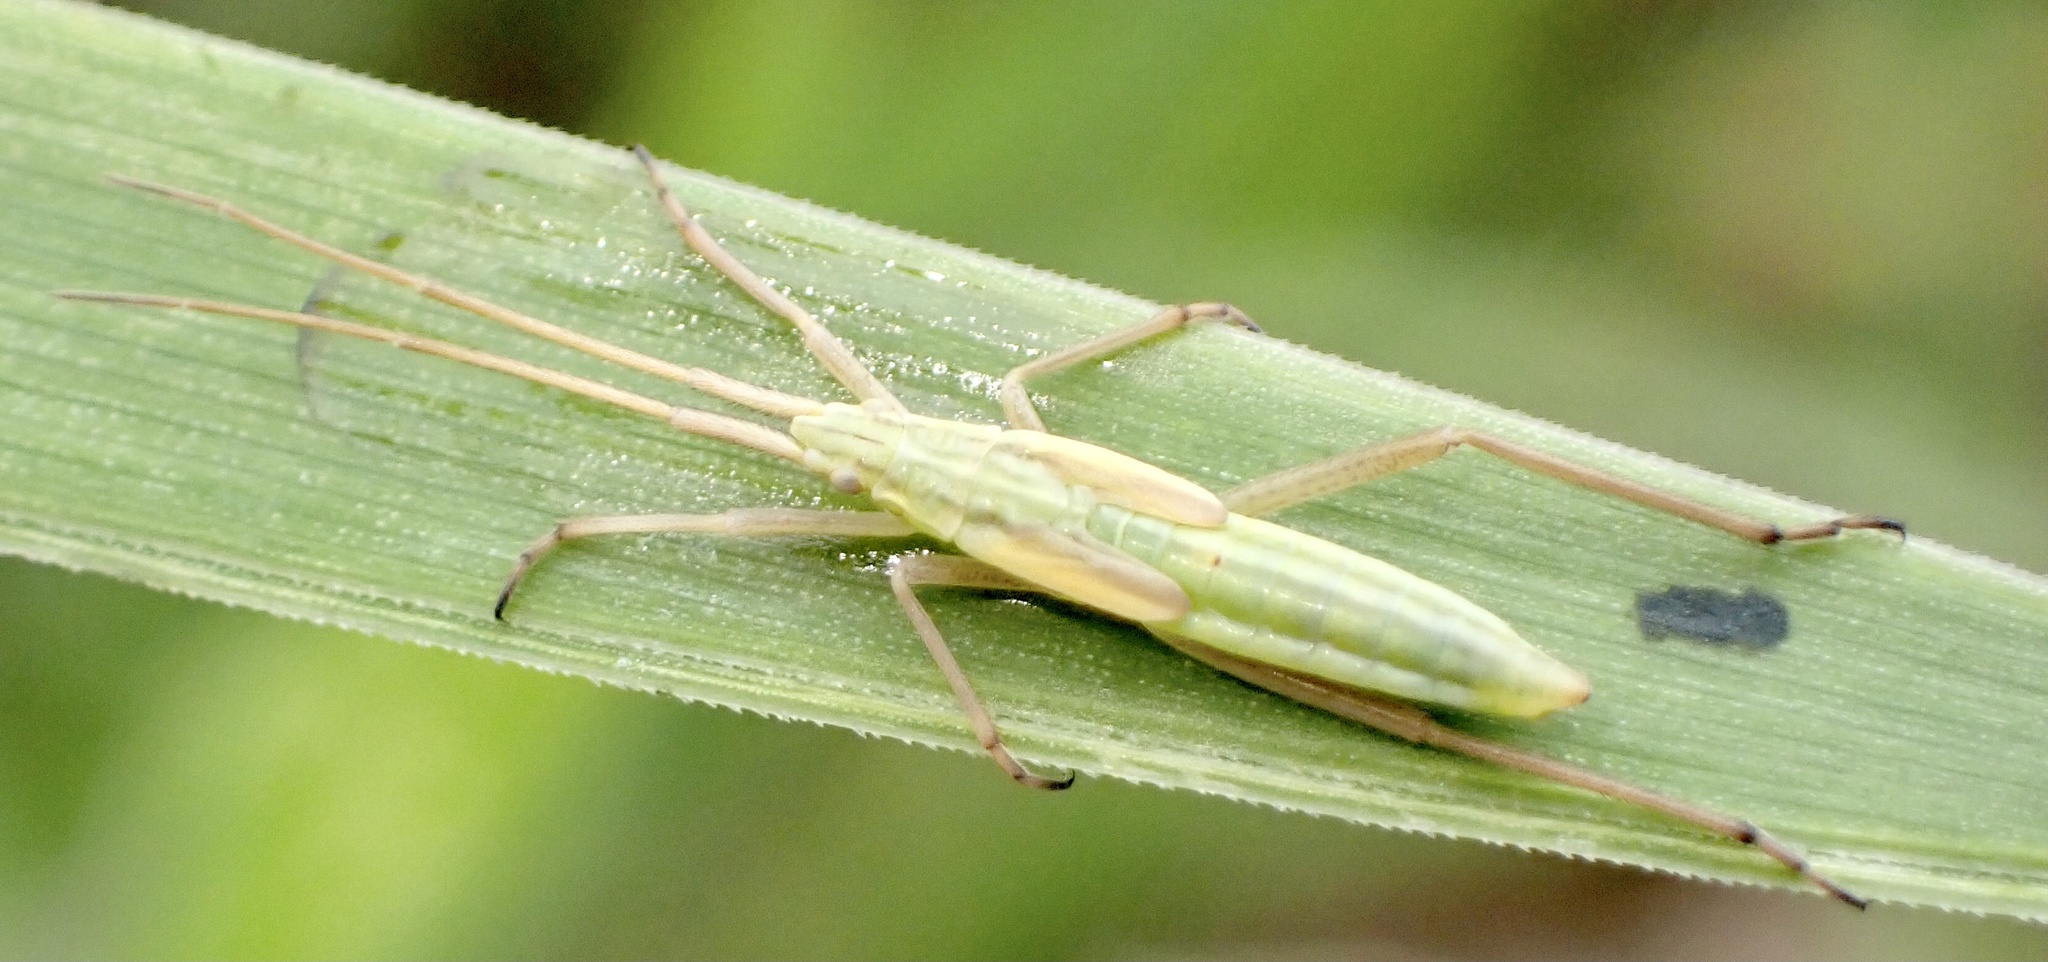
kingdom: Animalia
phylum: Arthropoda
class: Insecta
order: Hemiptera
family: Miridae
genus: Notostira
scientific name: Notostira elongata
